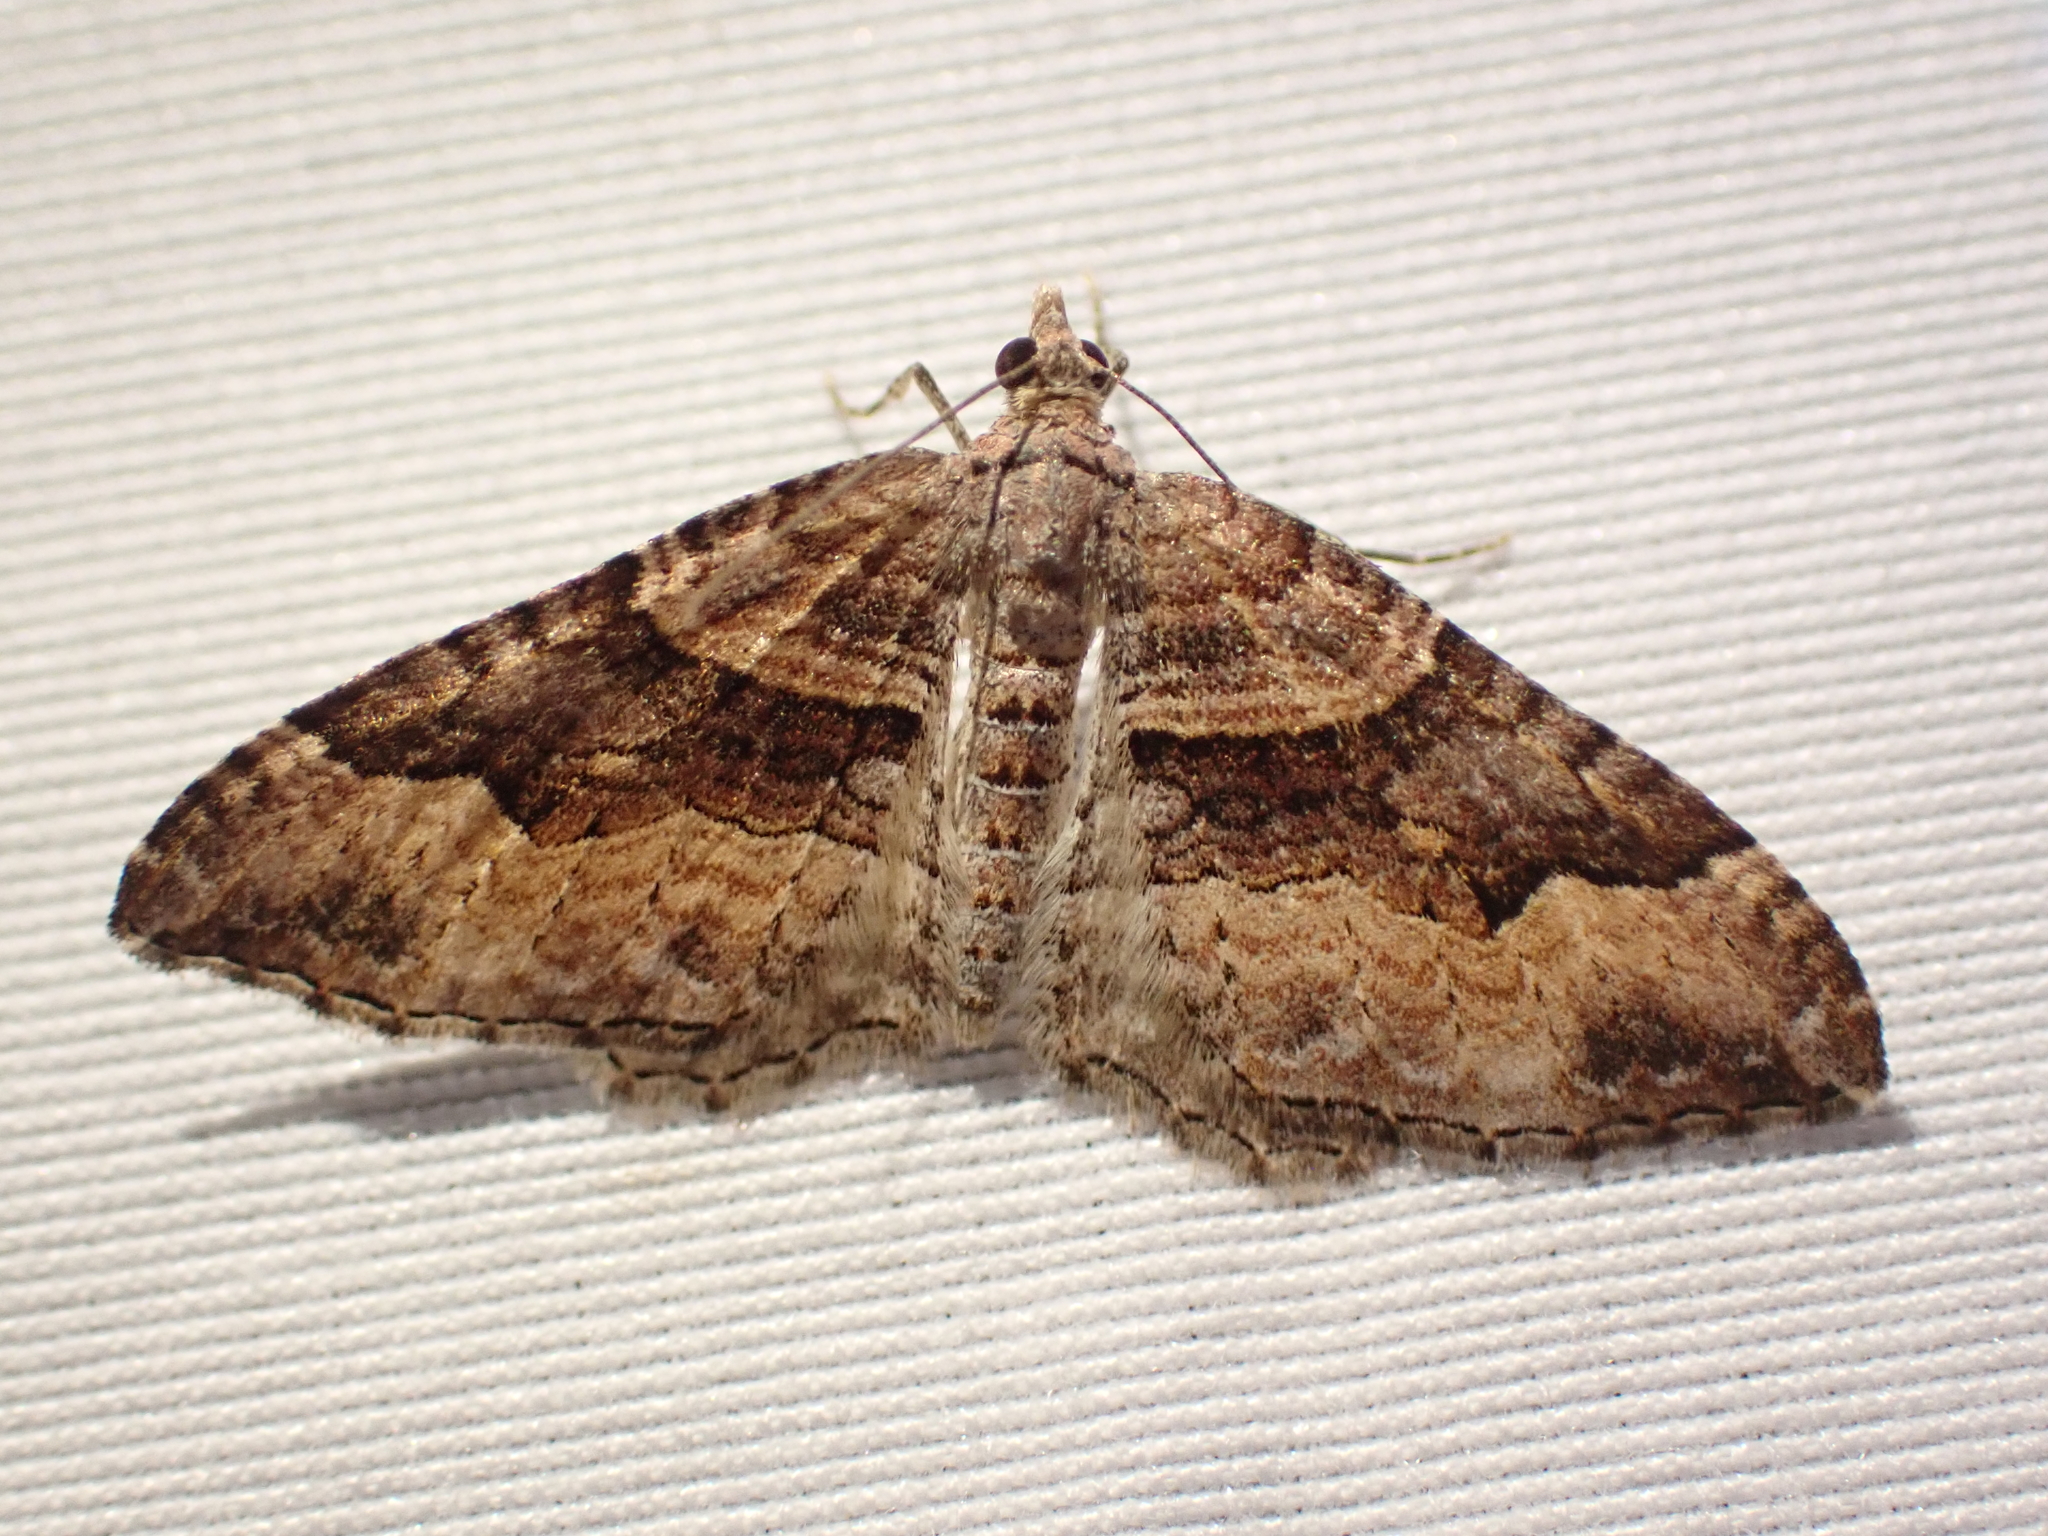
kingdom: Animalia
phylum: Arthropoda
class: Insecta
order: Lepidoptera
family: Geometridae
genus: Xanthorhoe
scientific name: Xanthorhoe defensaria
